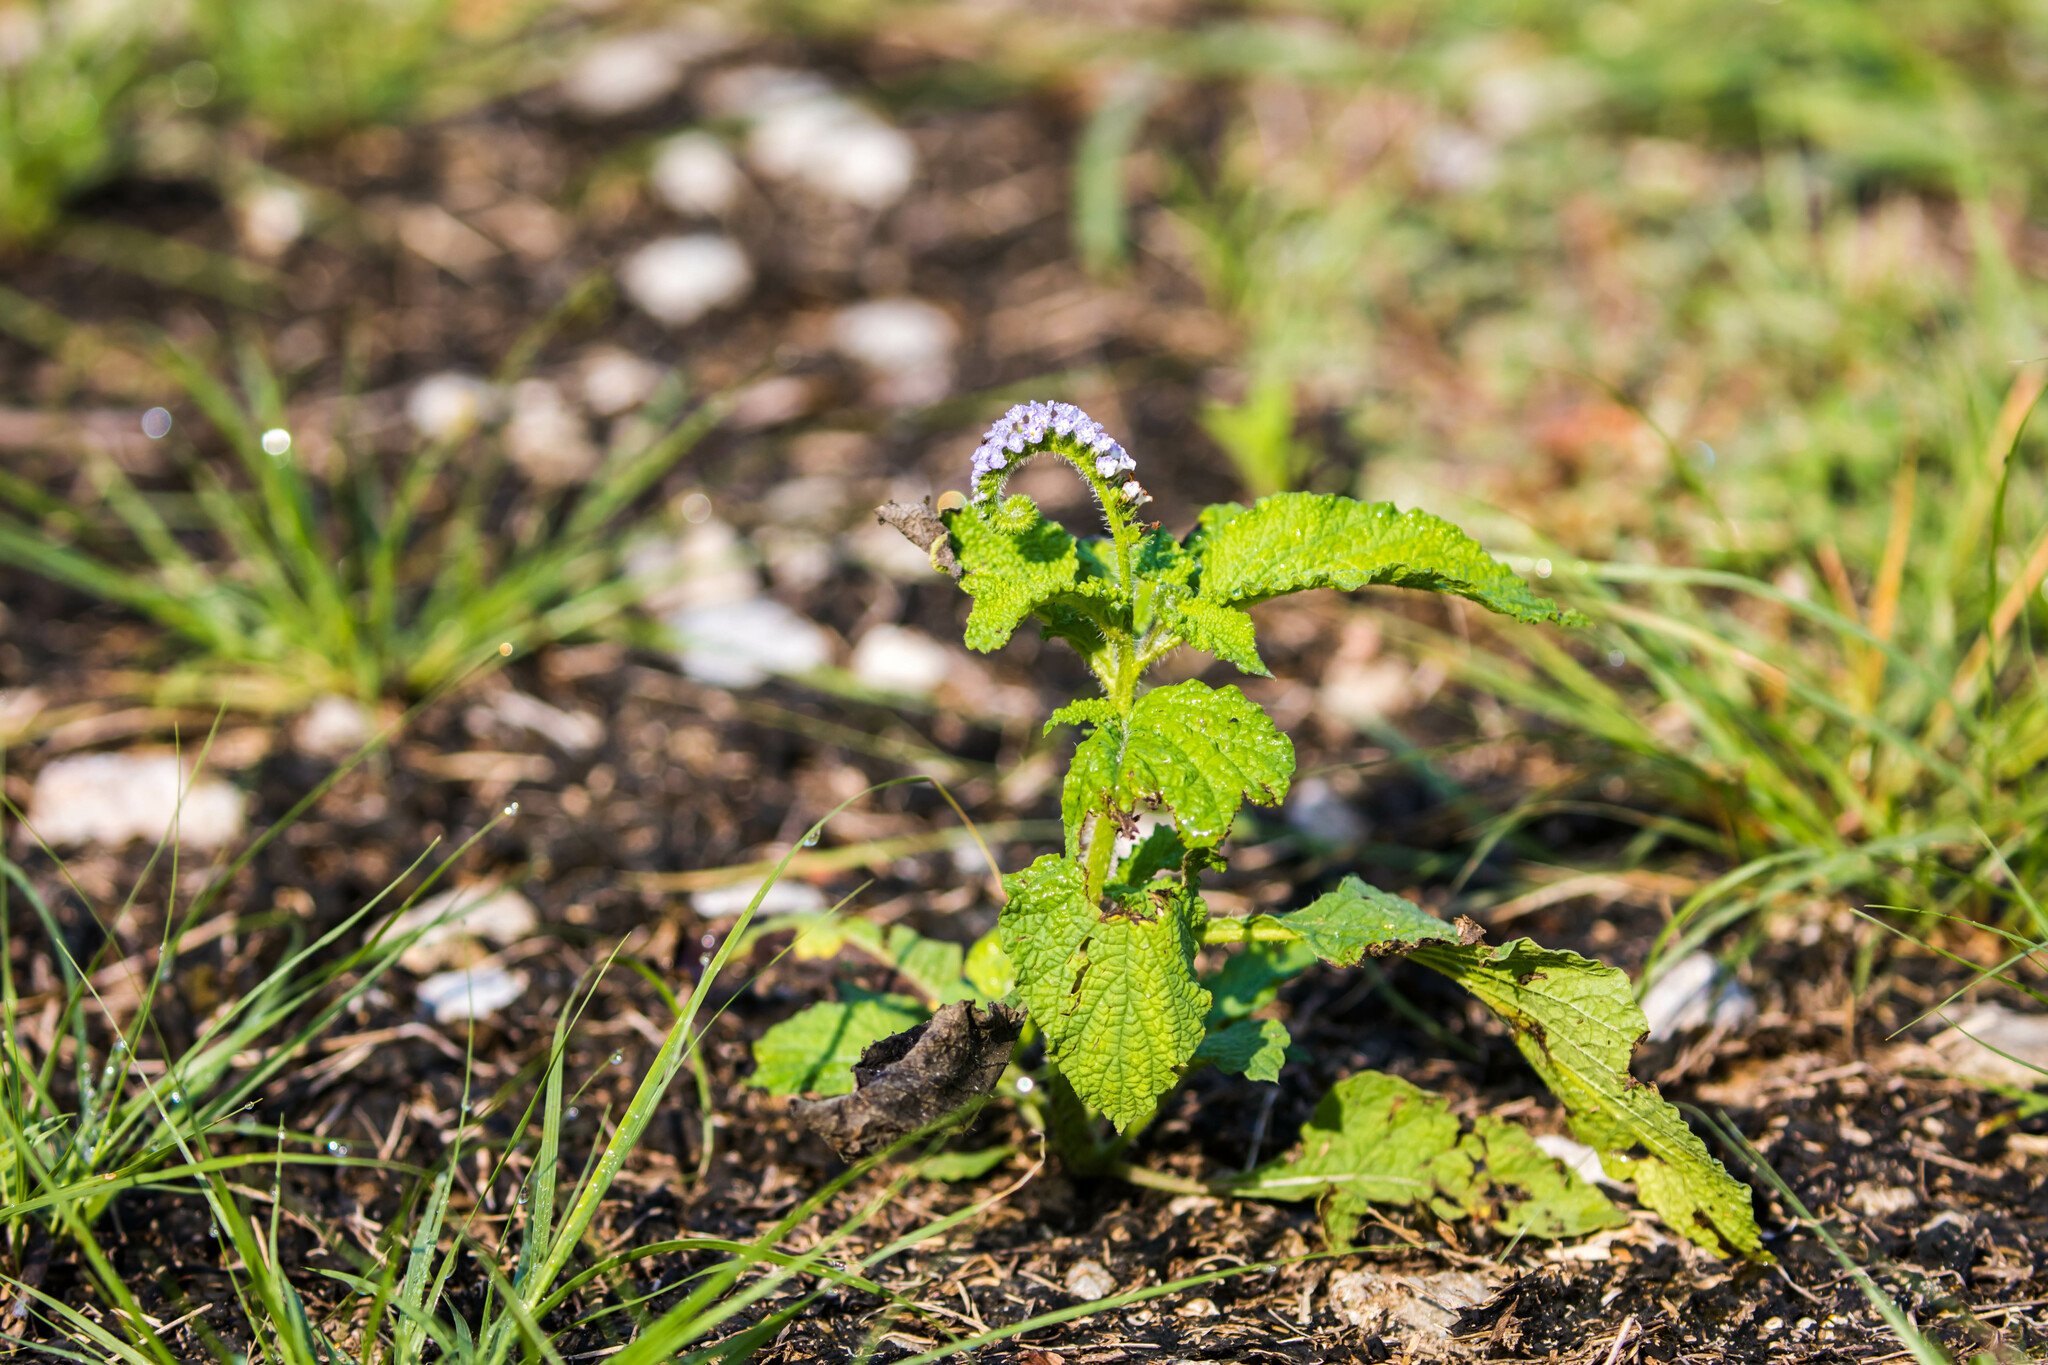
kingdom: Plantae
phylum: Tracheophyta
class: Magnoliopsida
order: Boraginales
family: Heliotropiaceae
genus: Heliotropium
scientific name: Heliotropium indicum
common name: Indian heliotrope
